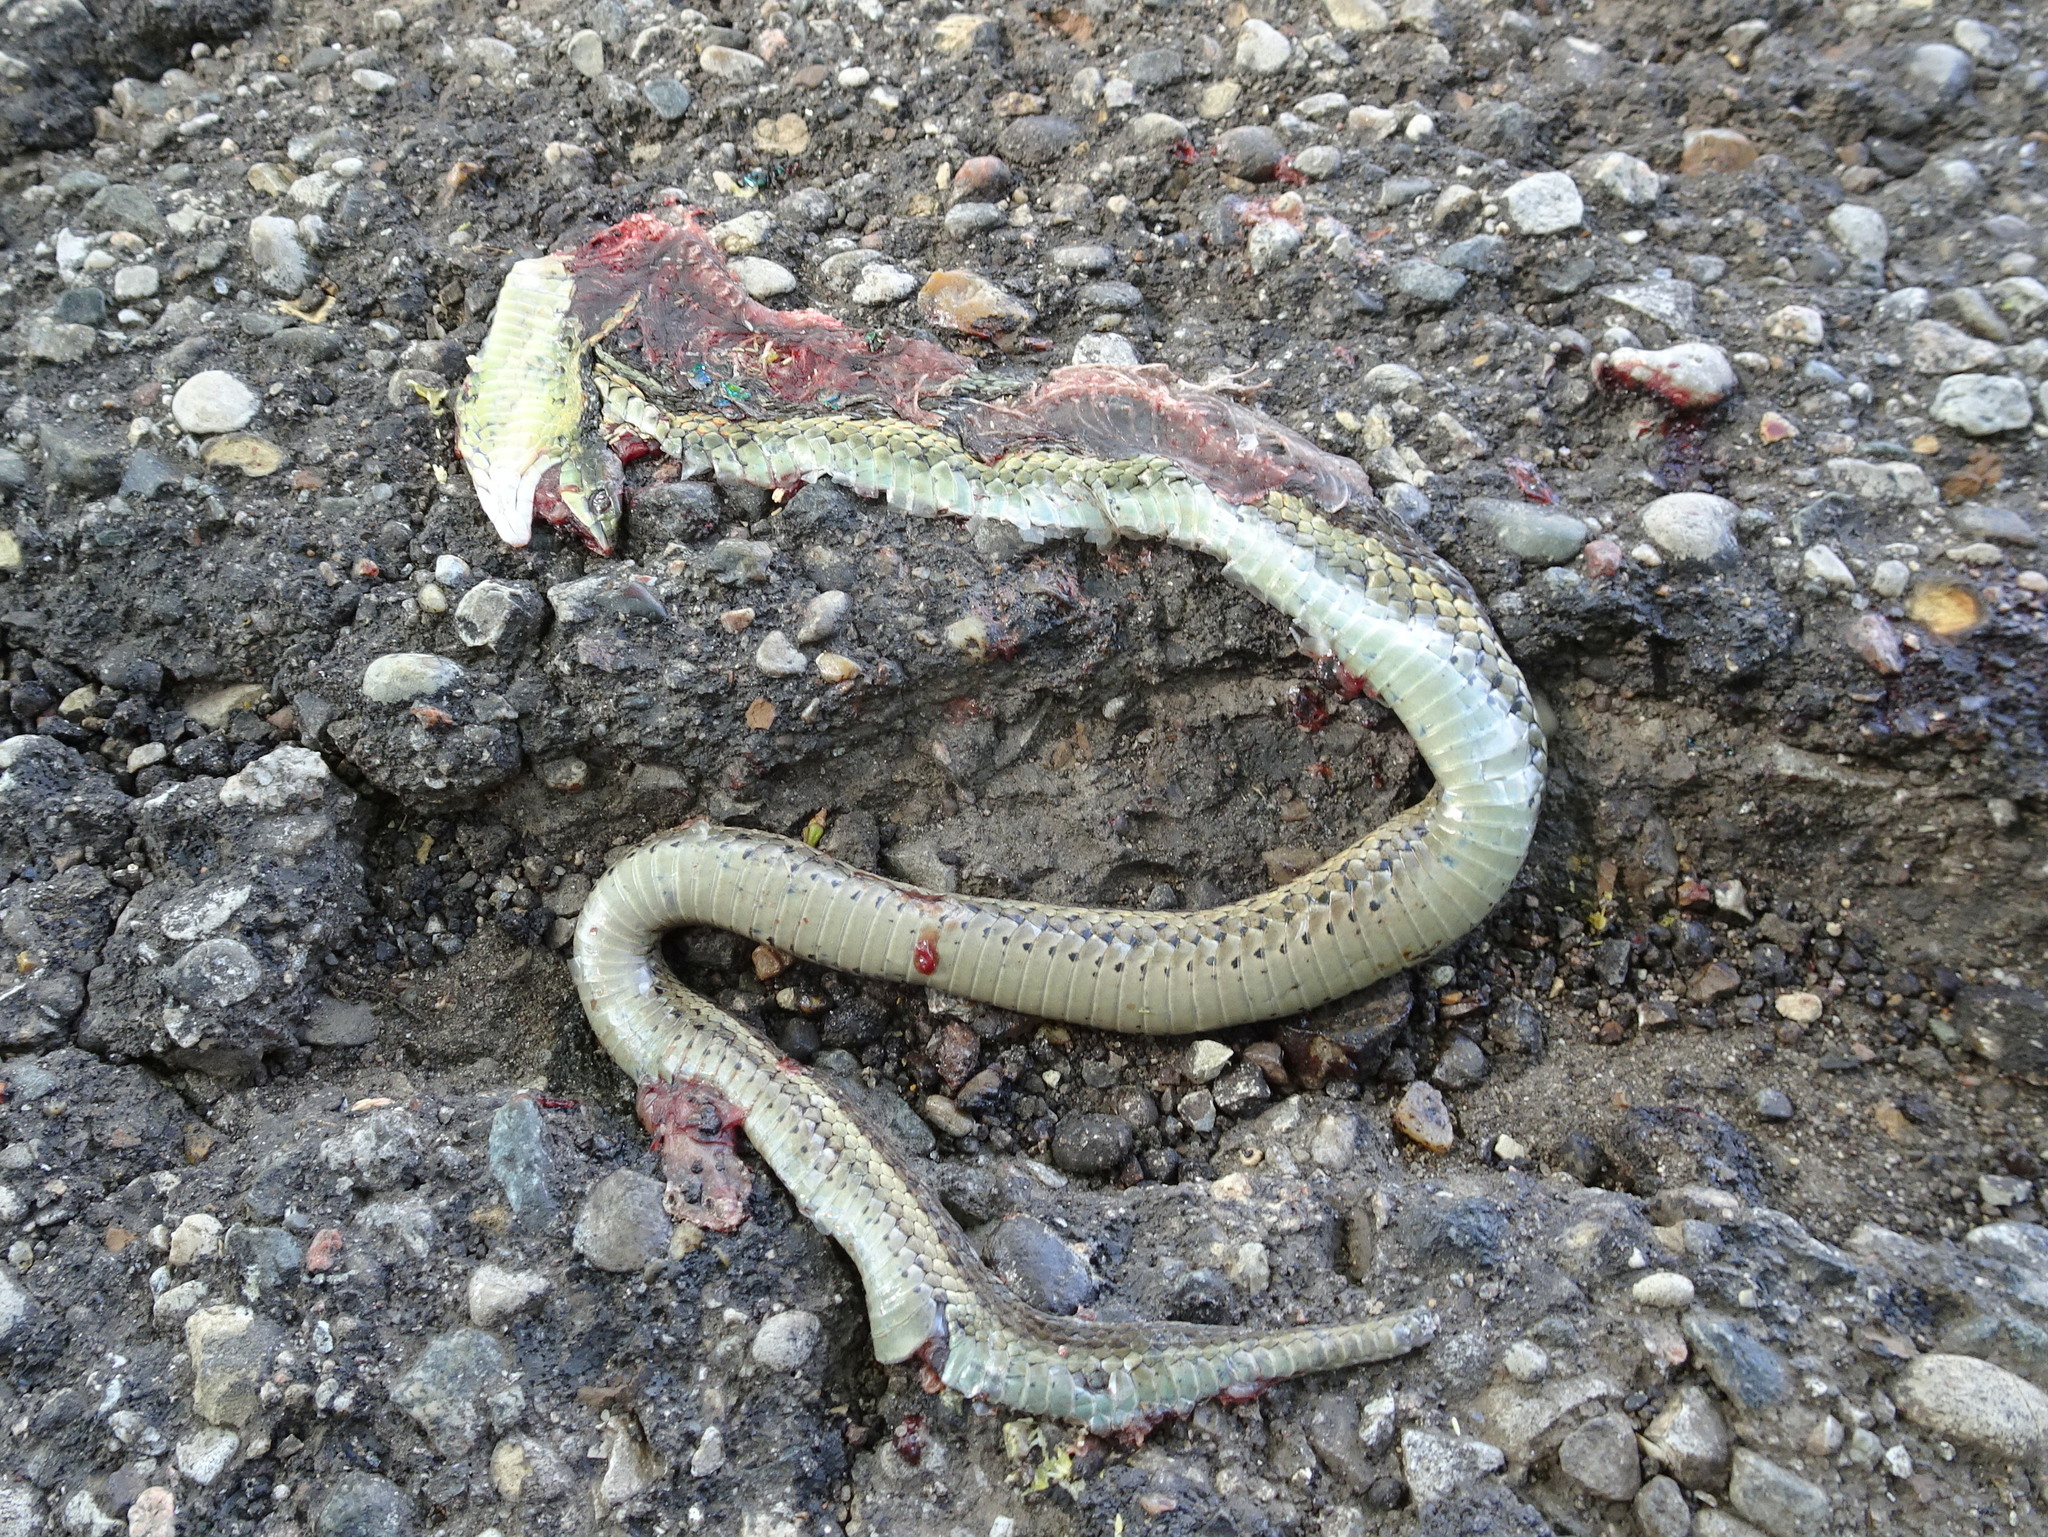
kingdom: Animalia
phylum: Chordata
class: Squamata
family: Colubridae
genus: Thamnophis
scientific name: Thamnophis sirtalis
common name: Common garter snake
